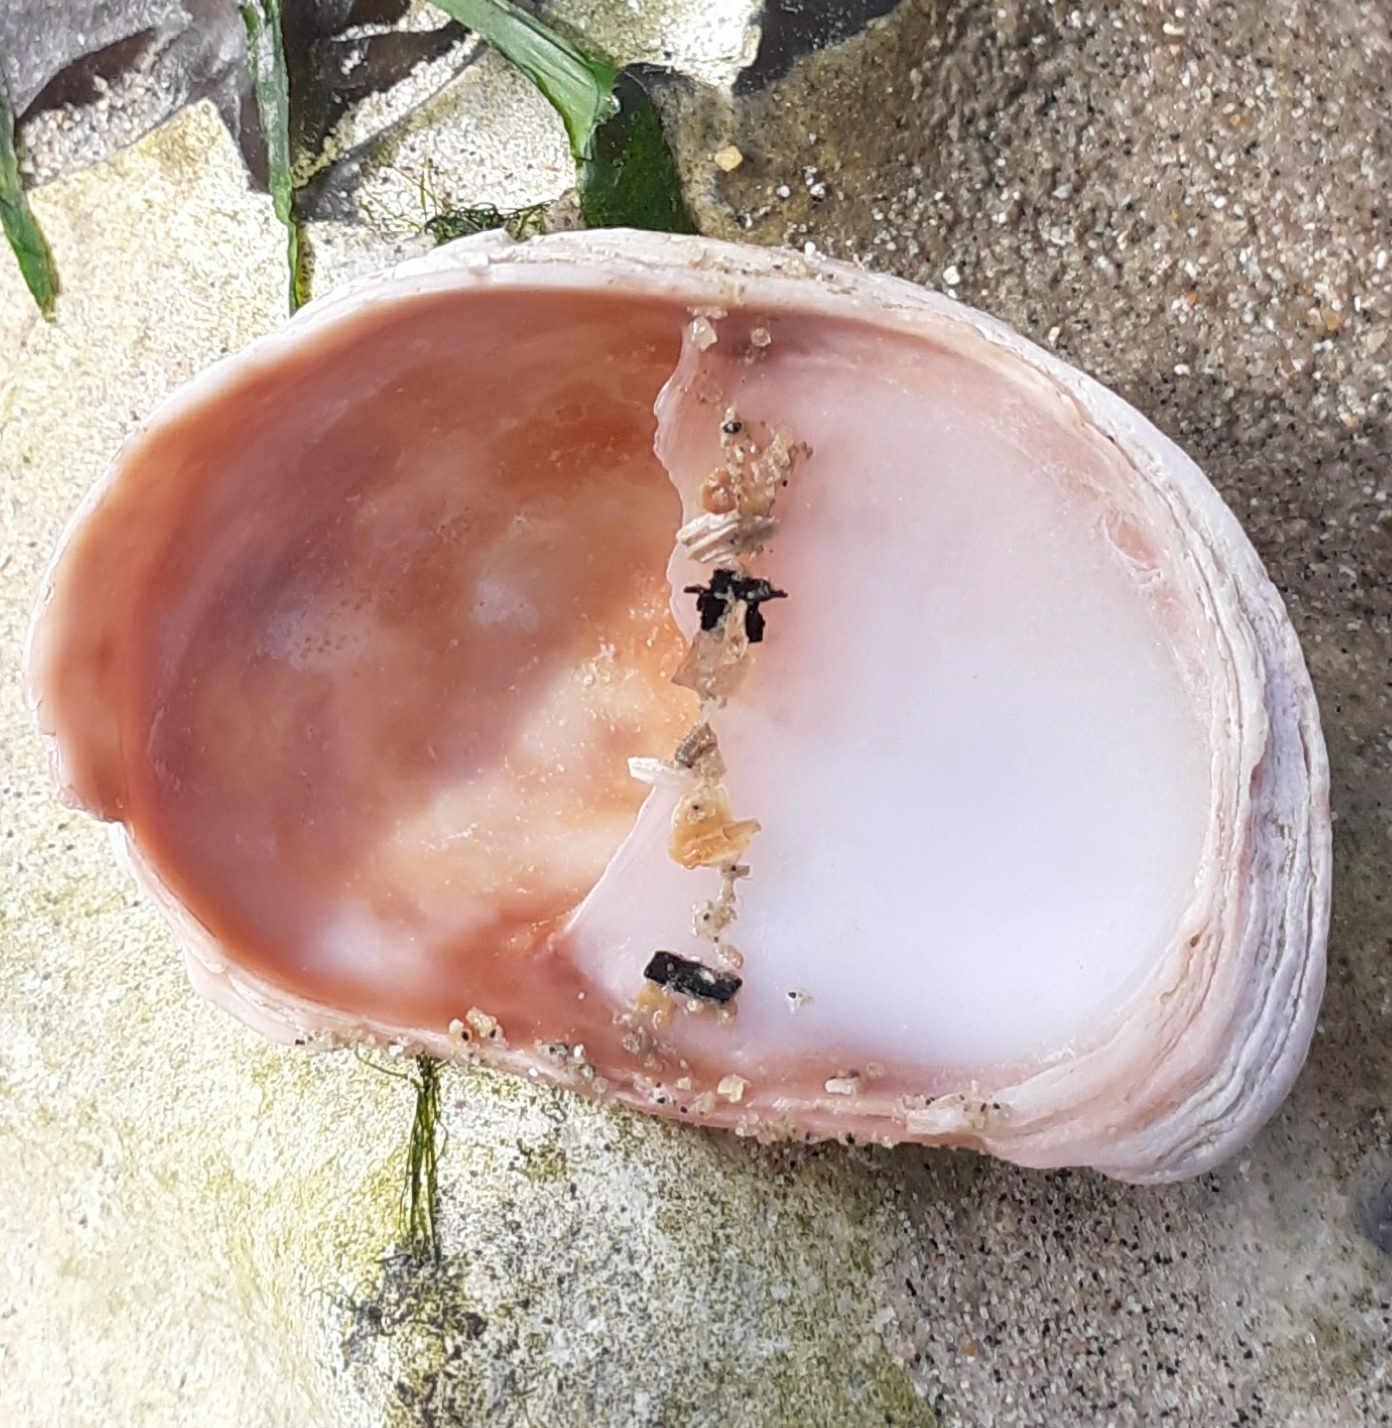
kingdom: Animalia
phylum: Mollusca
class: Gastropoda
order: Littorinimorpha
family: Calyptraeidae
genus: Crepidula
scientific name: Crepidula fornicata
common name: Slipper limpet
